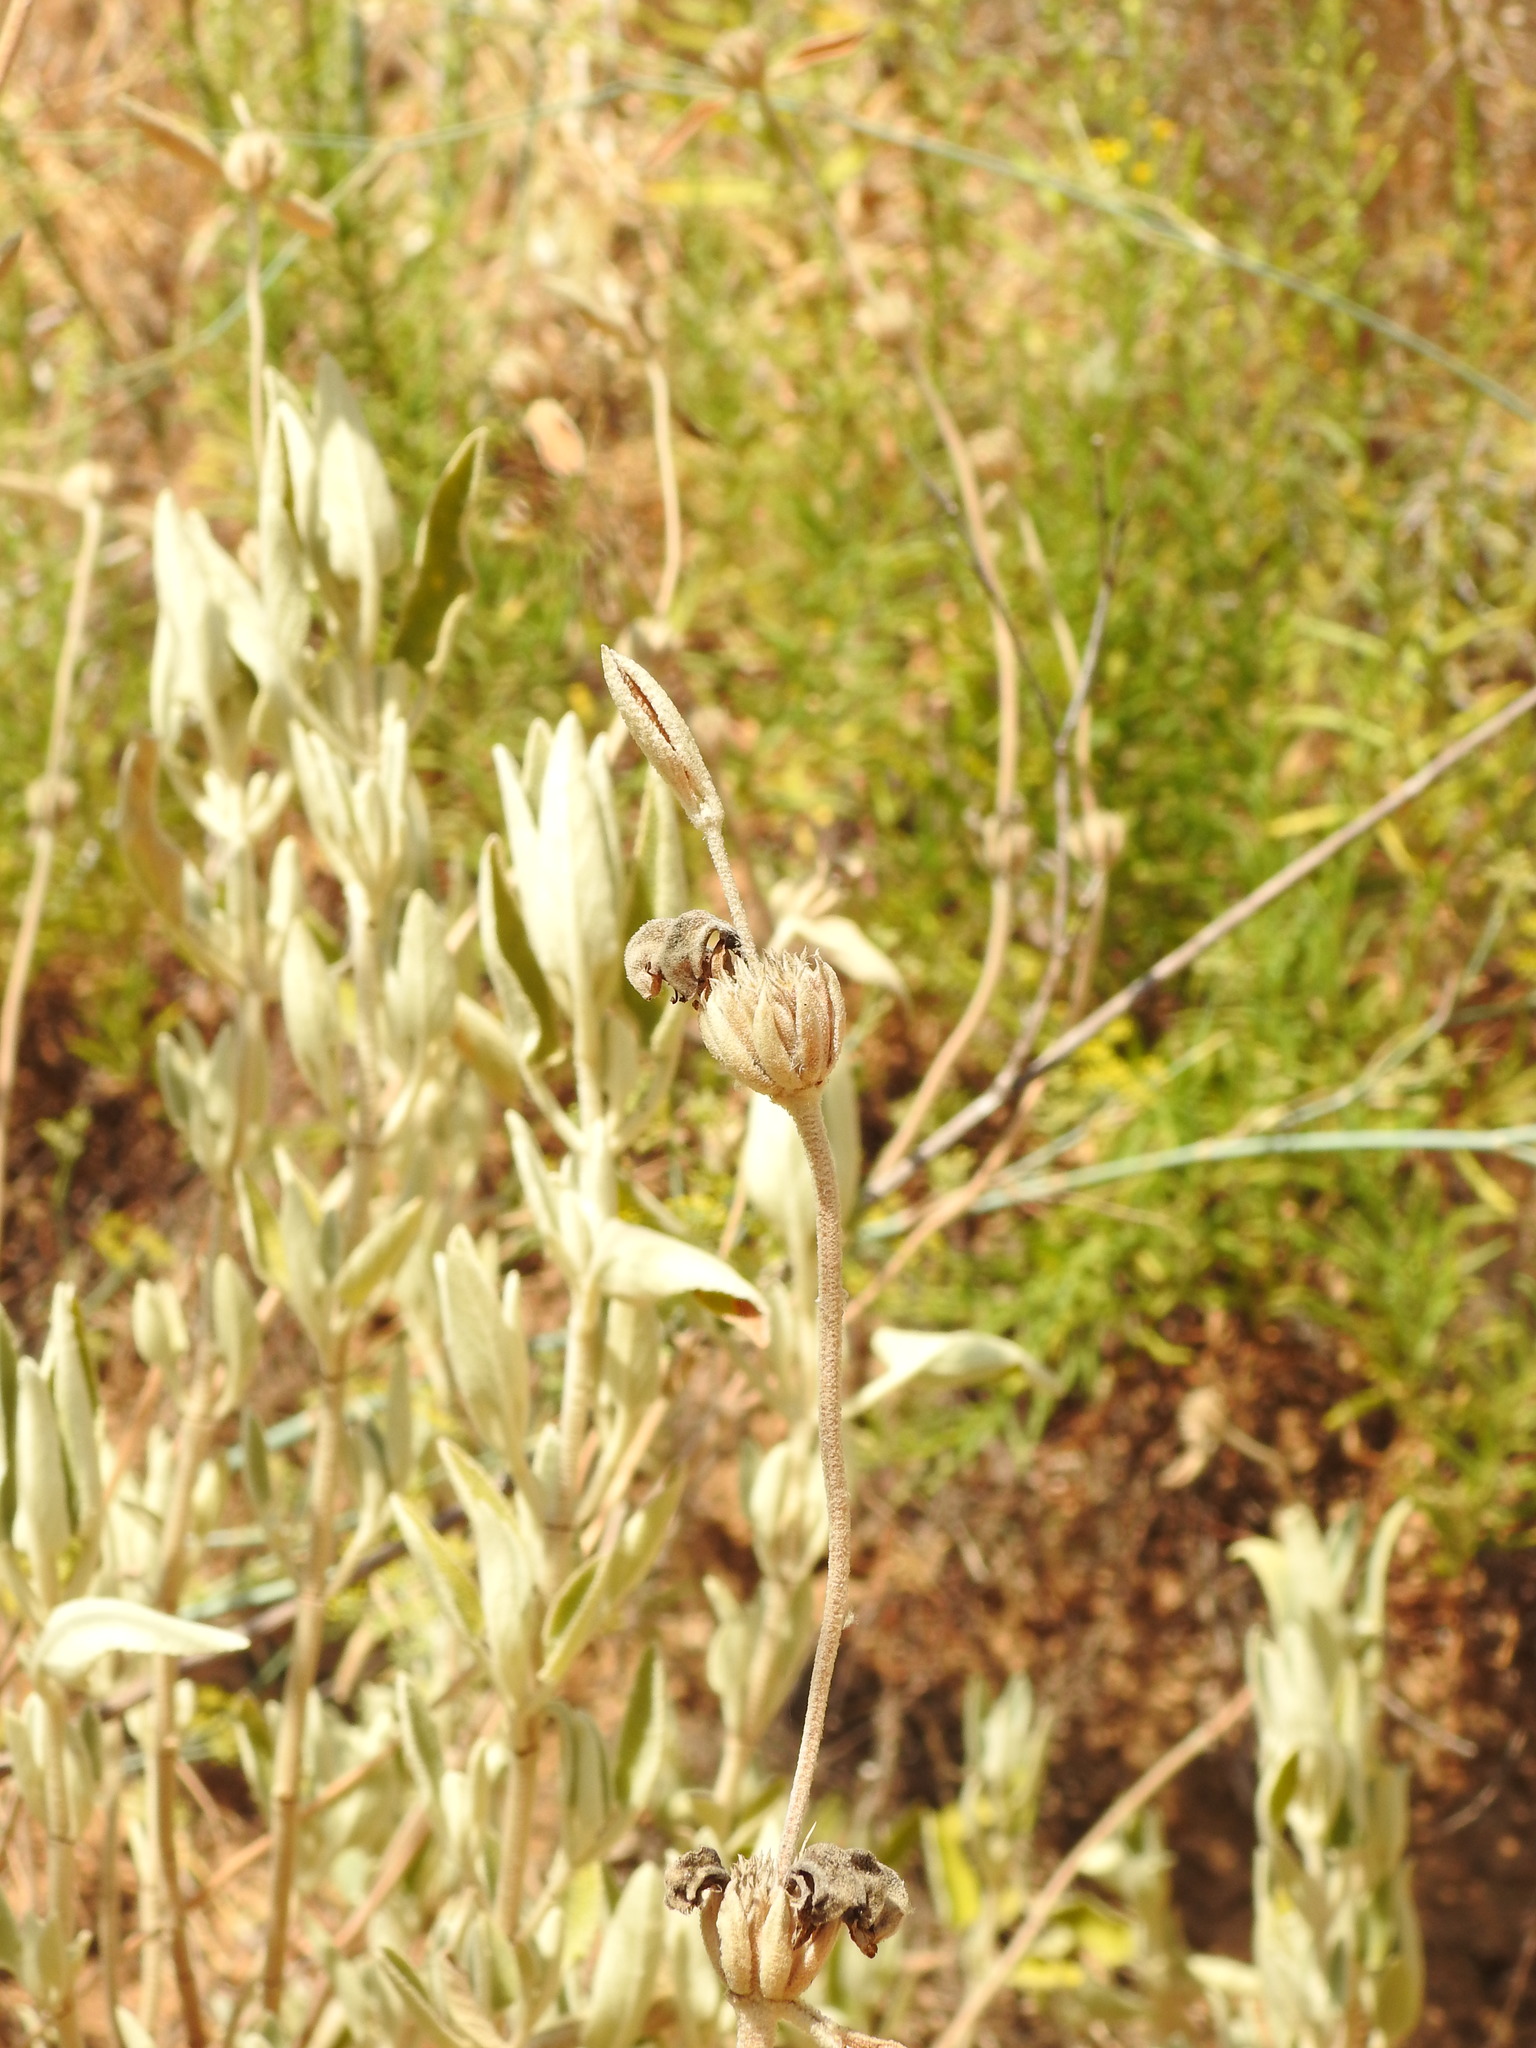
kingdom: Plantae
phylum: Tracheophyta
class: Magnoliopsida
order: Lamiales
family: Lamiaceae
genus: Phlomis
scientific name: Phlomis purpurea
